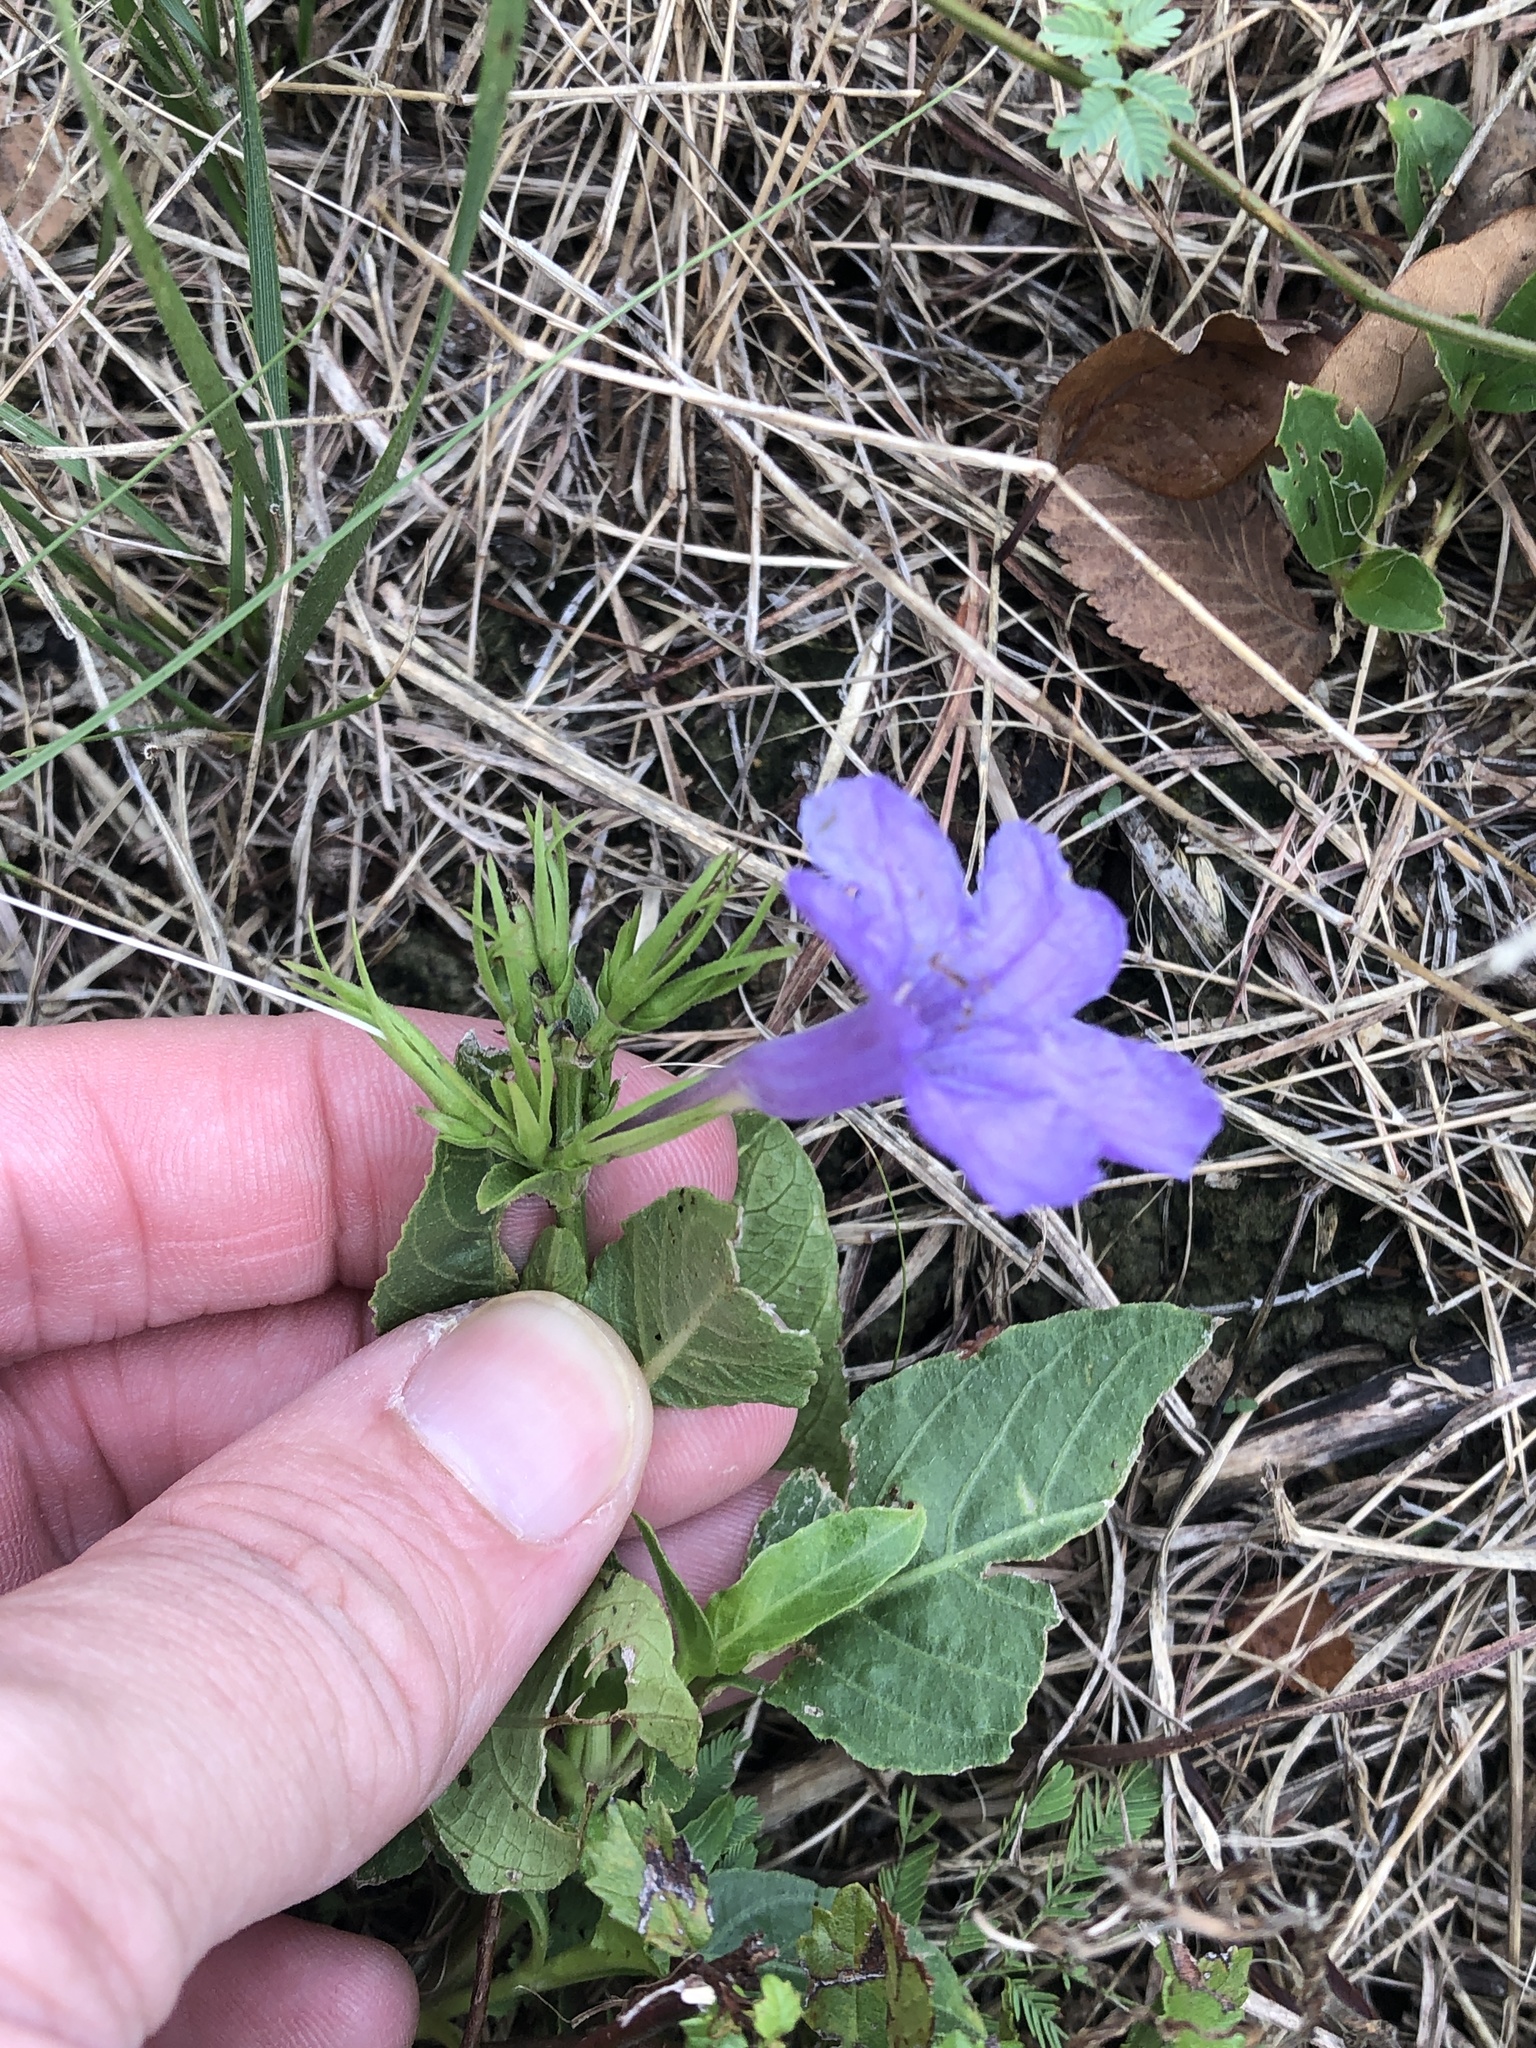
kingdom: Plantae
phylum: Tracheophyta
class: Magnoliopsida
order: Lamiales
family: Acanthaceae
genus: Ruellia
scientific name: Ruellia ciliatiflora
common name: Hairyflower wild petunia
